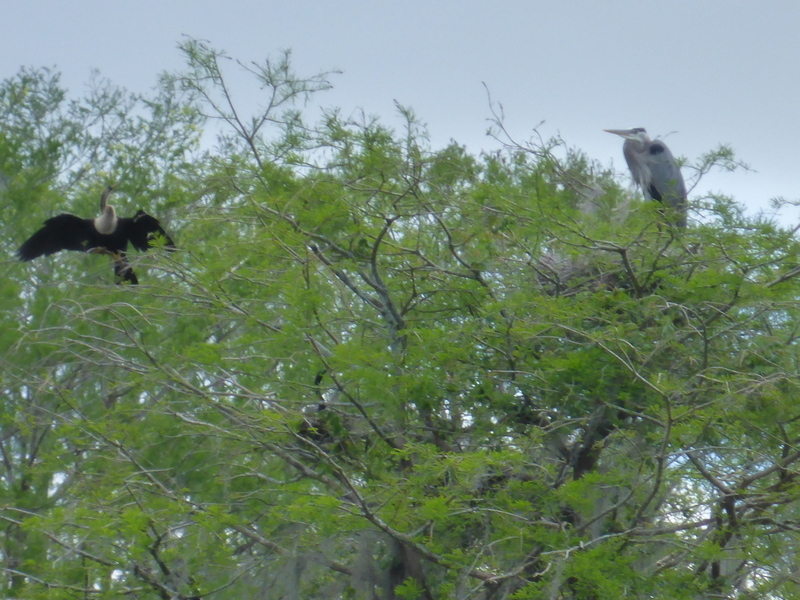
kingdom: Animalia
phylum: Chordata
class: Aves
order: Pelecaniformes
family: Ardeidae
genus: Ardea
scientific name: Ardea herodias
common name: Great blue heron
